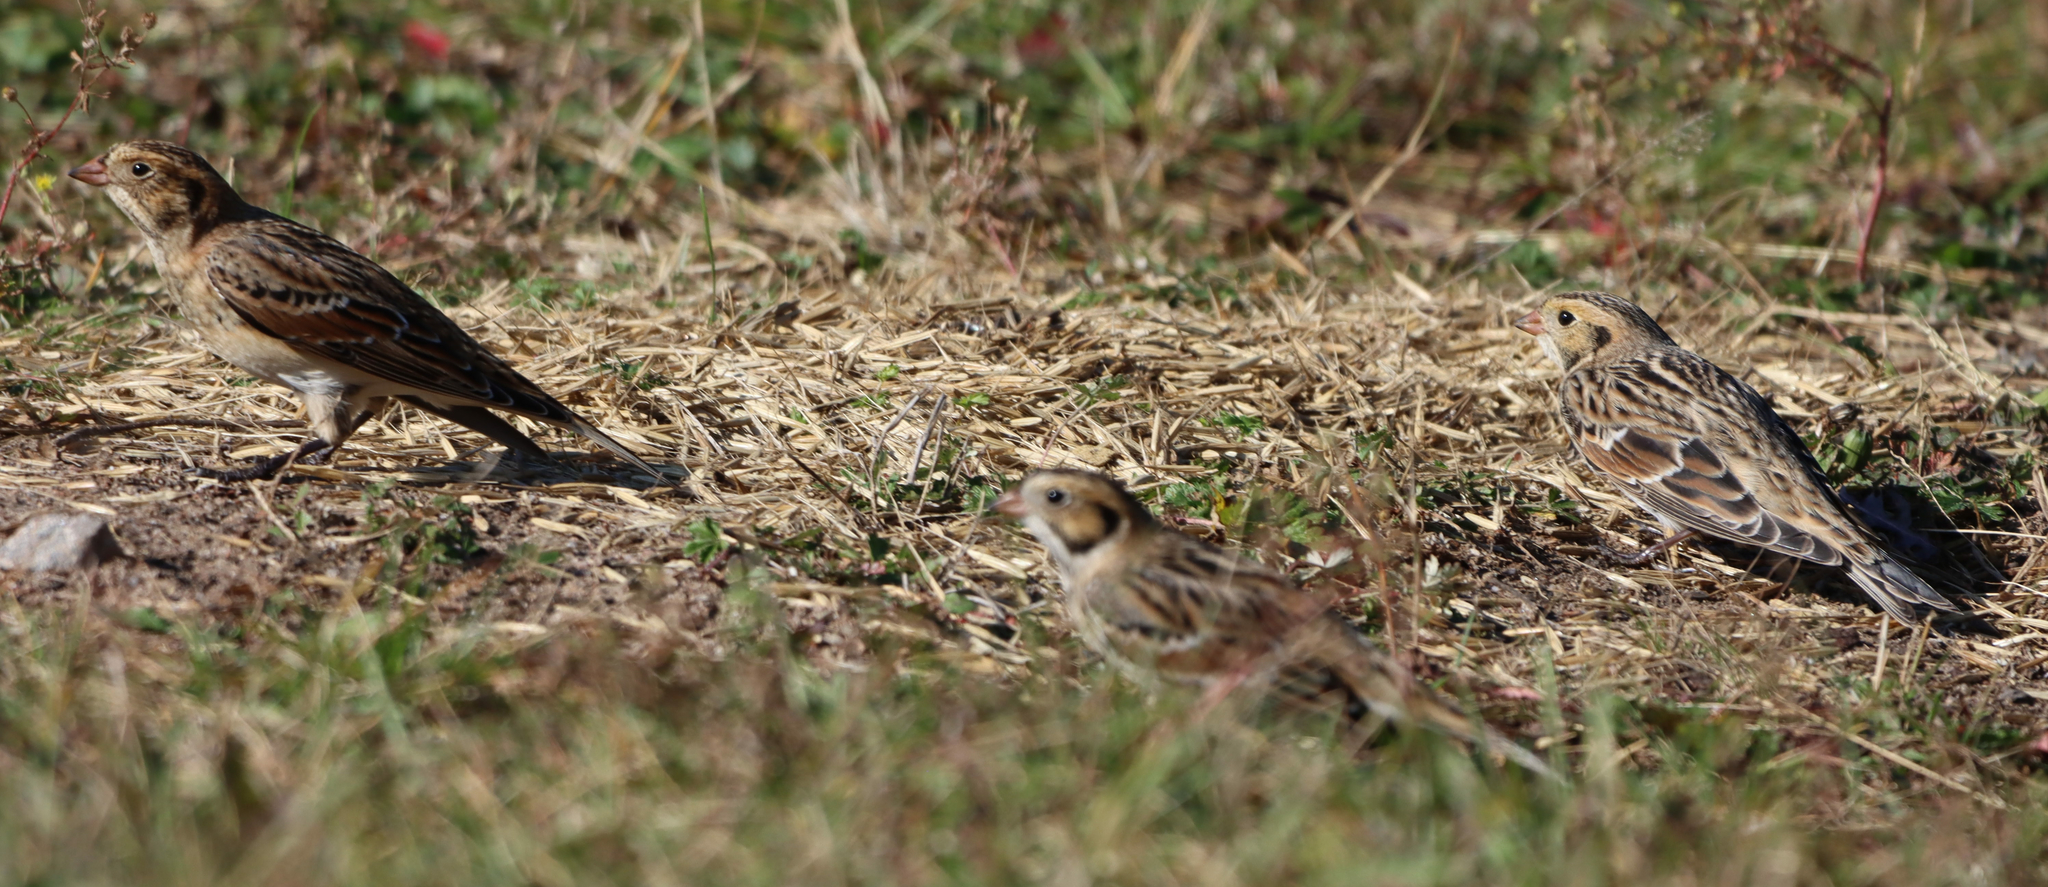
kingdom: Animalia
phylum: Chordata
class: Aves
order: Passeriformes
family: Calcariidae
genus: Calcarius
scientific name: Calcarius lapponicus
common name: Lapland longspur
